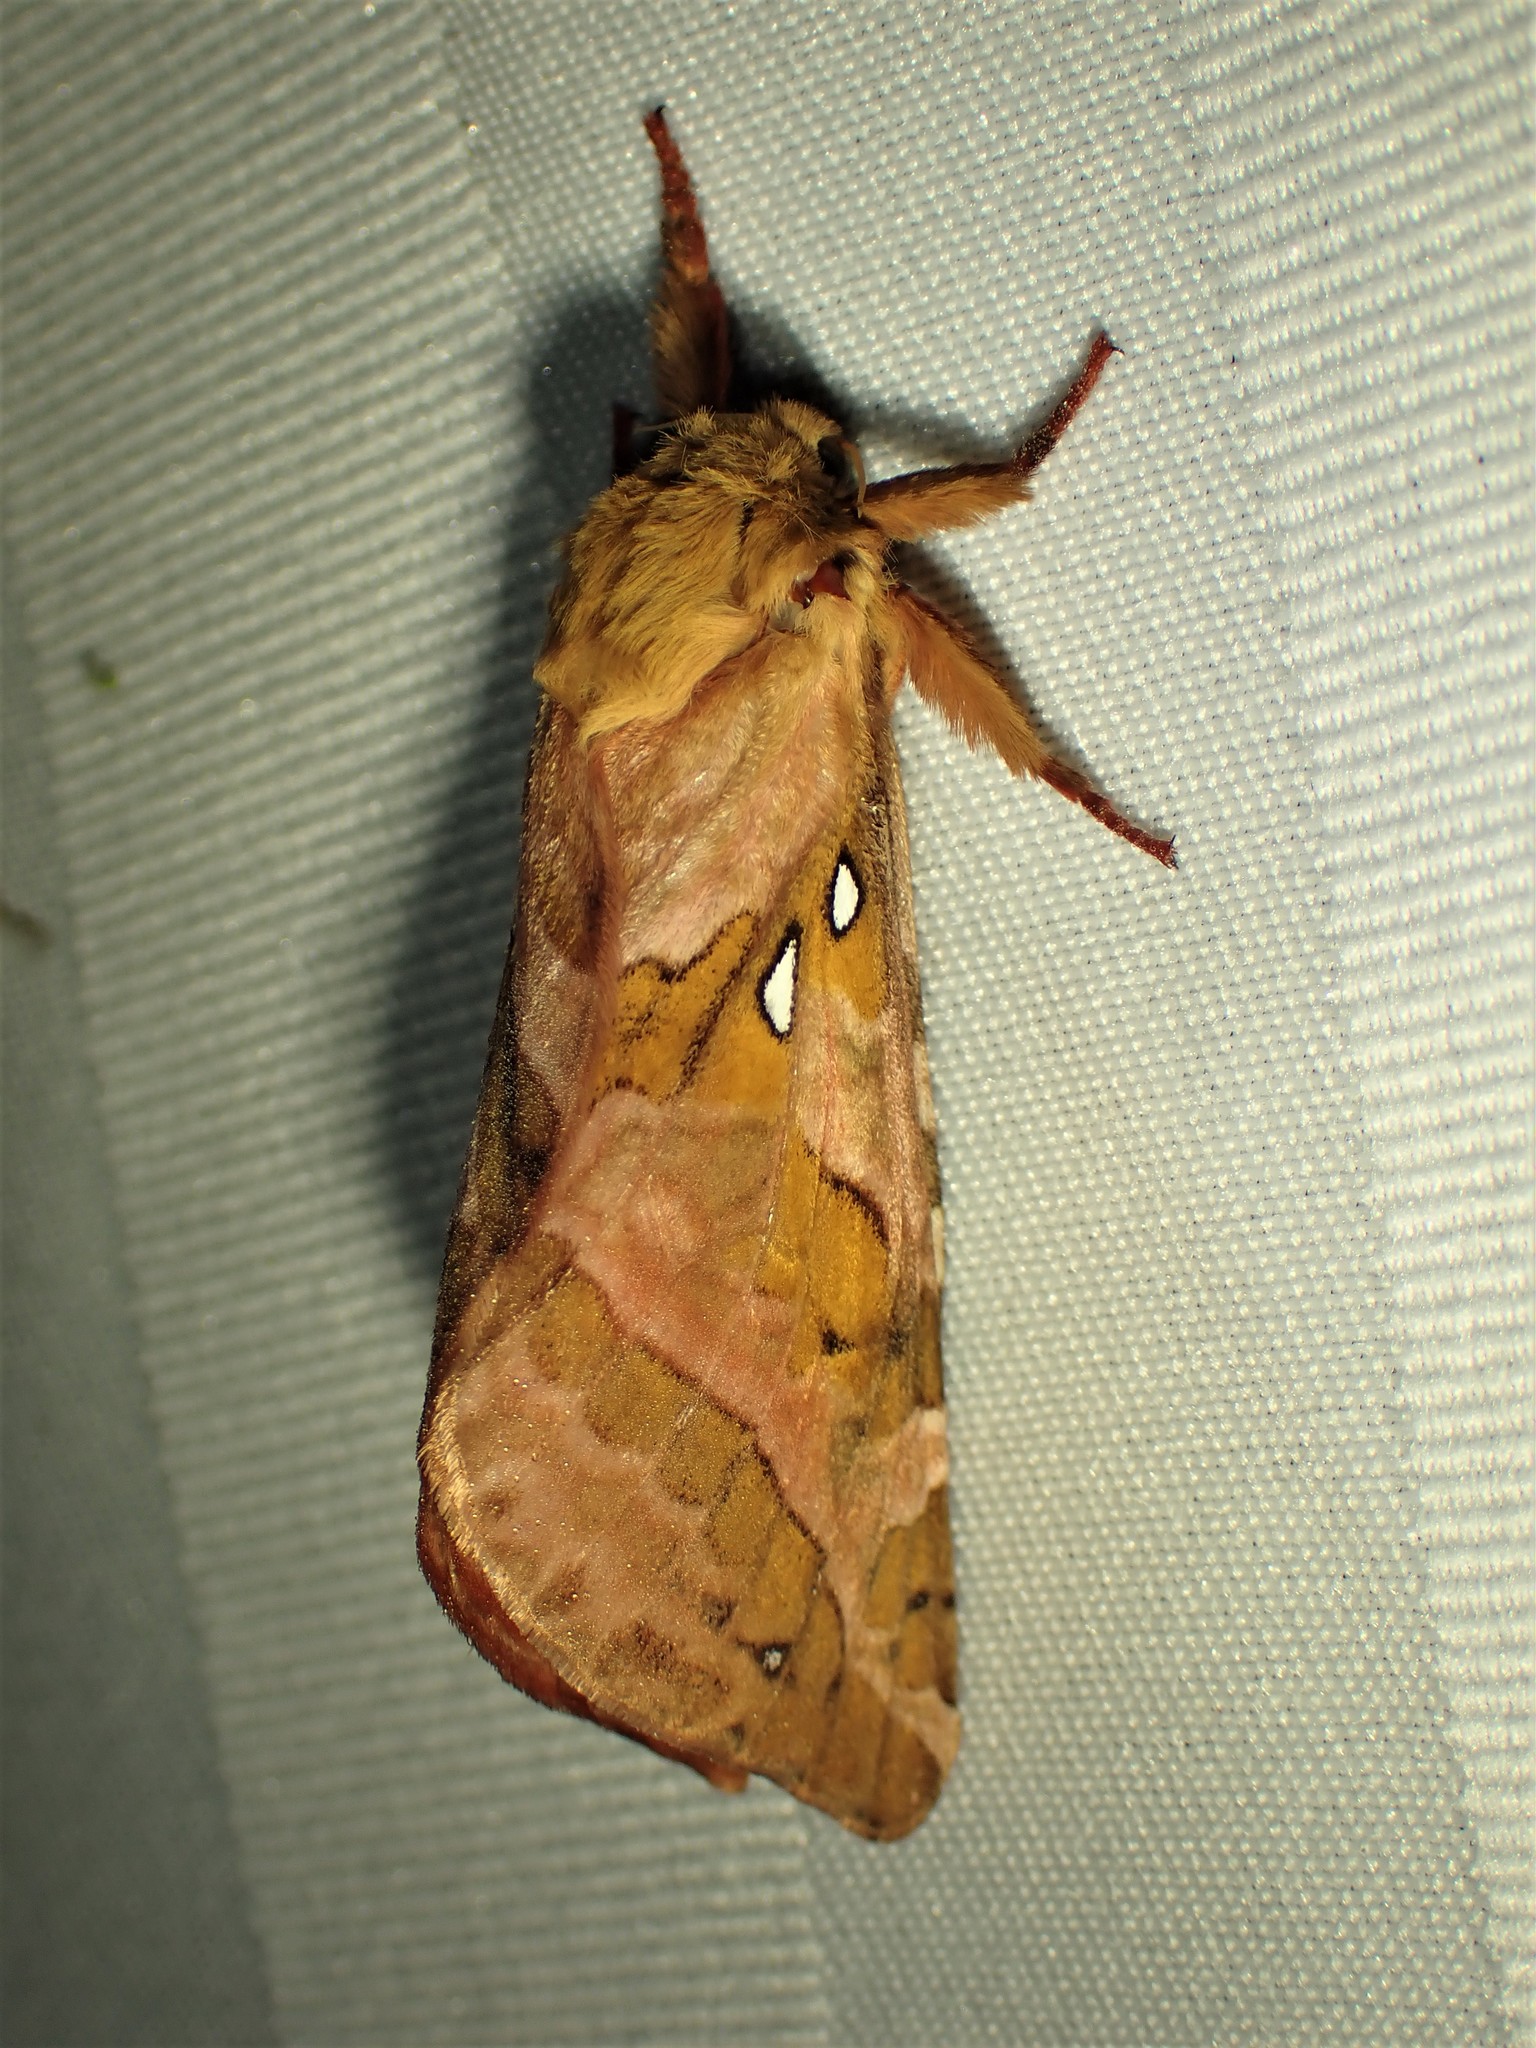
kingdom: Animalia
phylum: Arthropoda
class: Insecta
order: Lepidoptera
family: Hepialidae
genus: Sthenopis
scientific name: Sthenopis purpurascens
